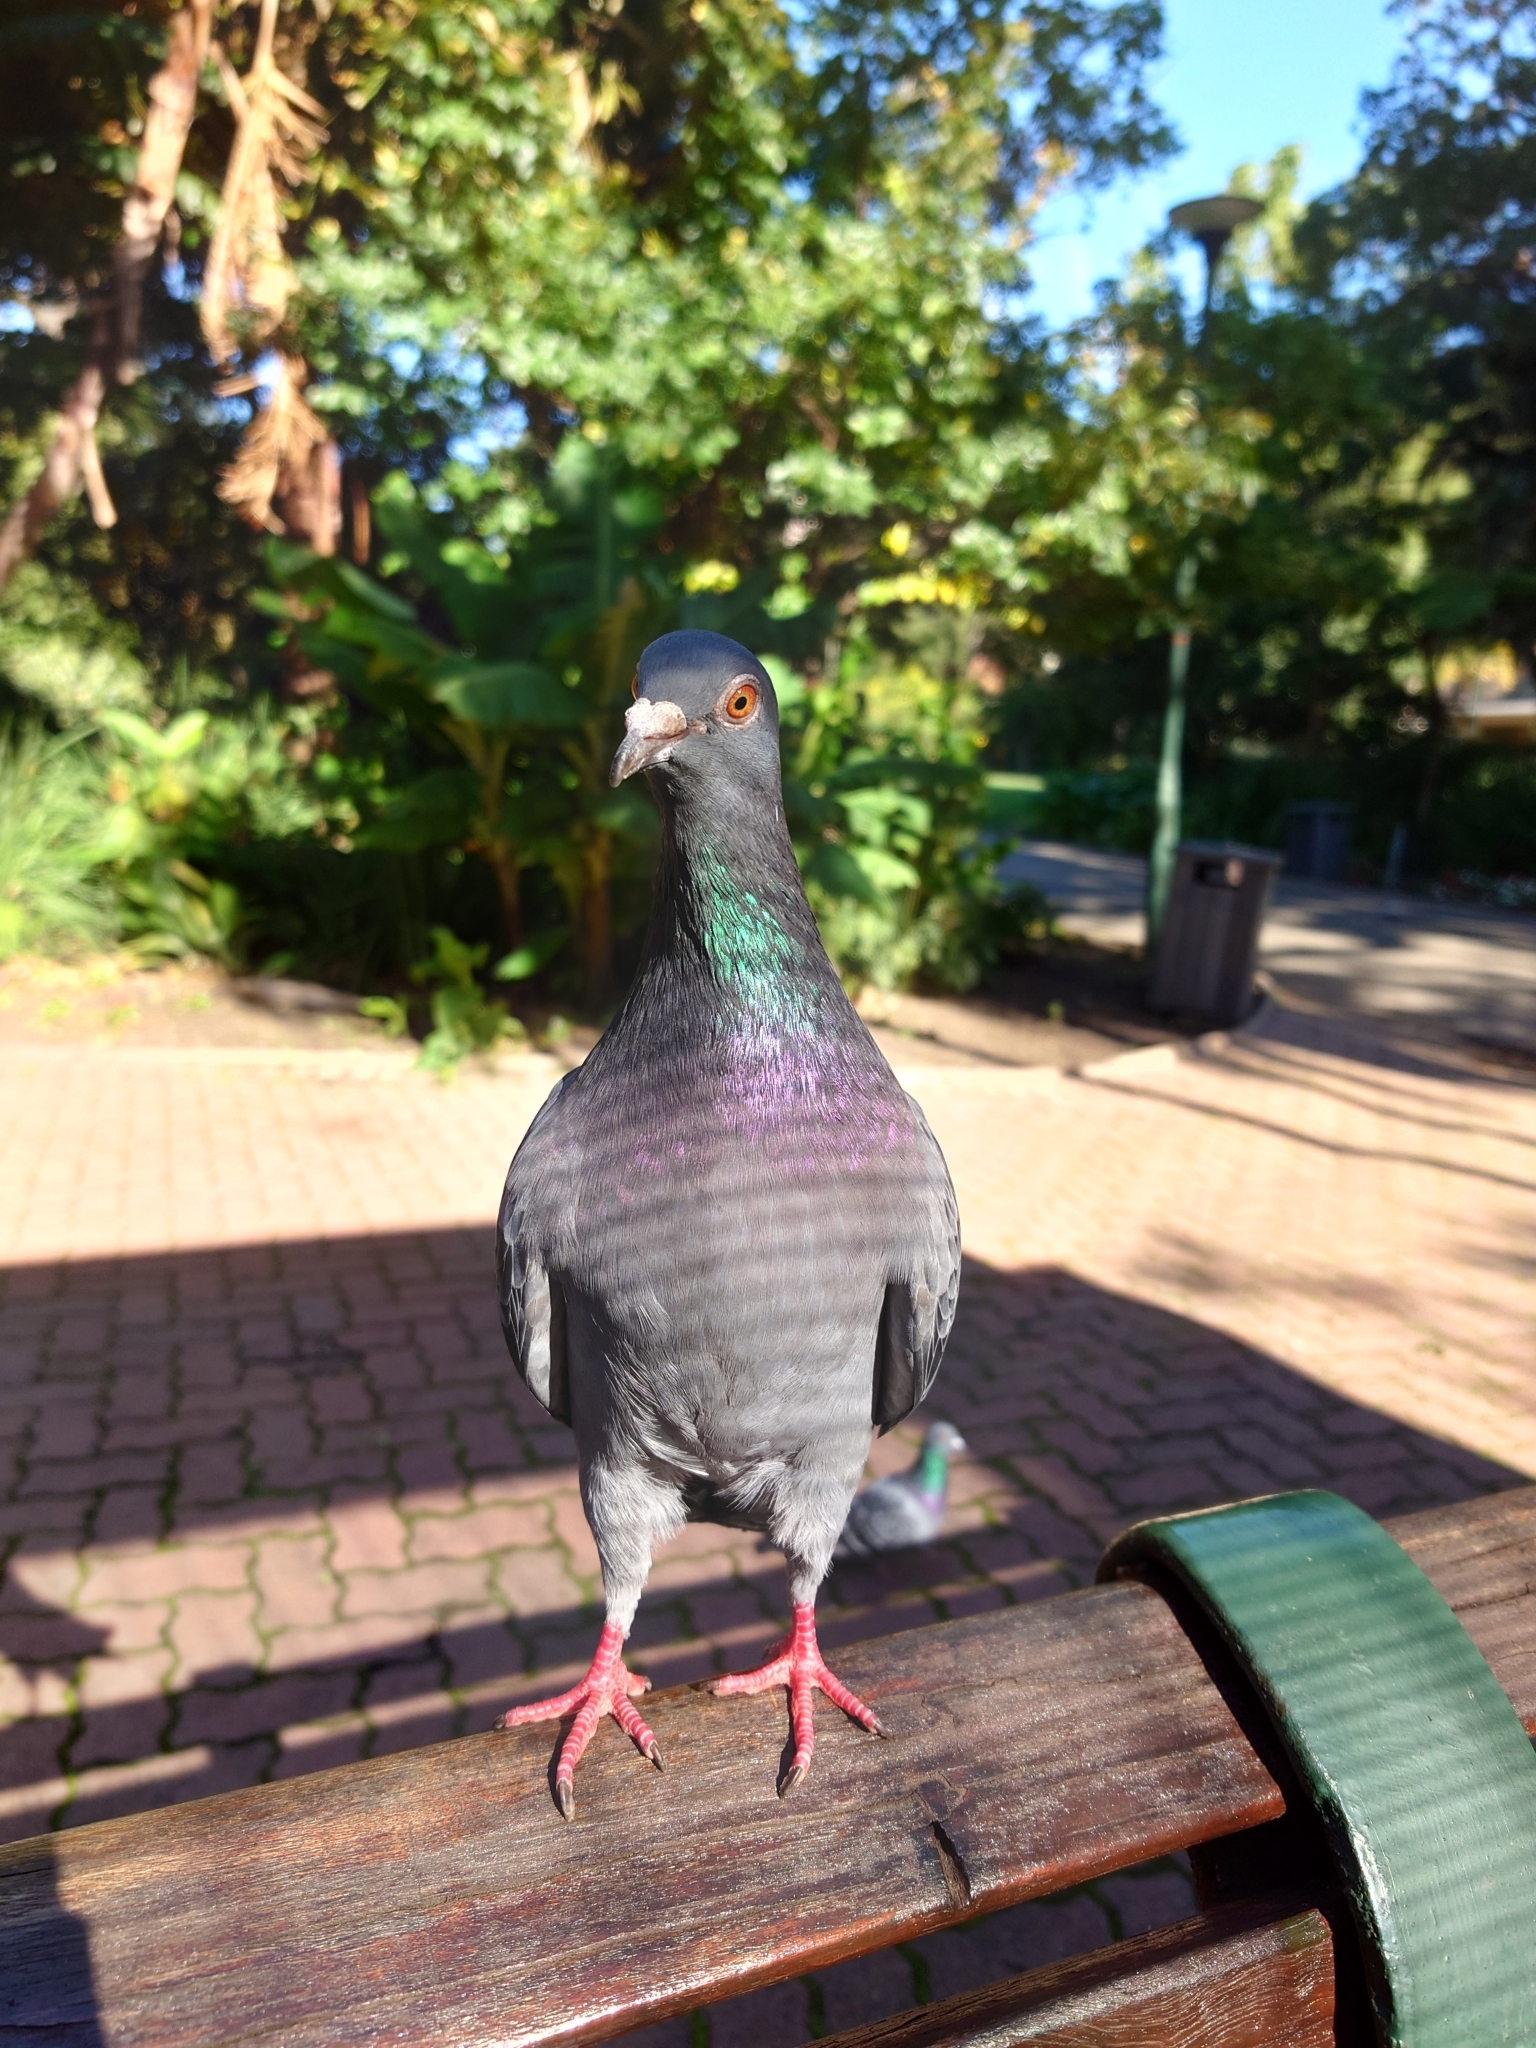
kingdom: Animalia
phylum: Chordata
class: Aves
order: Columbiformes
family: Columbidae
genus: Columba
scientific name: Columba livia
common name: Rock pigeon
